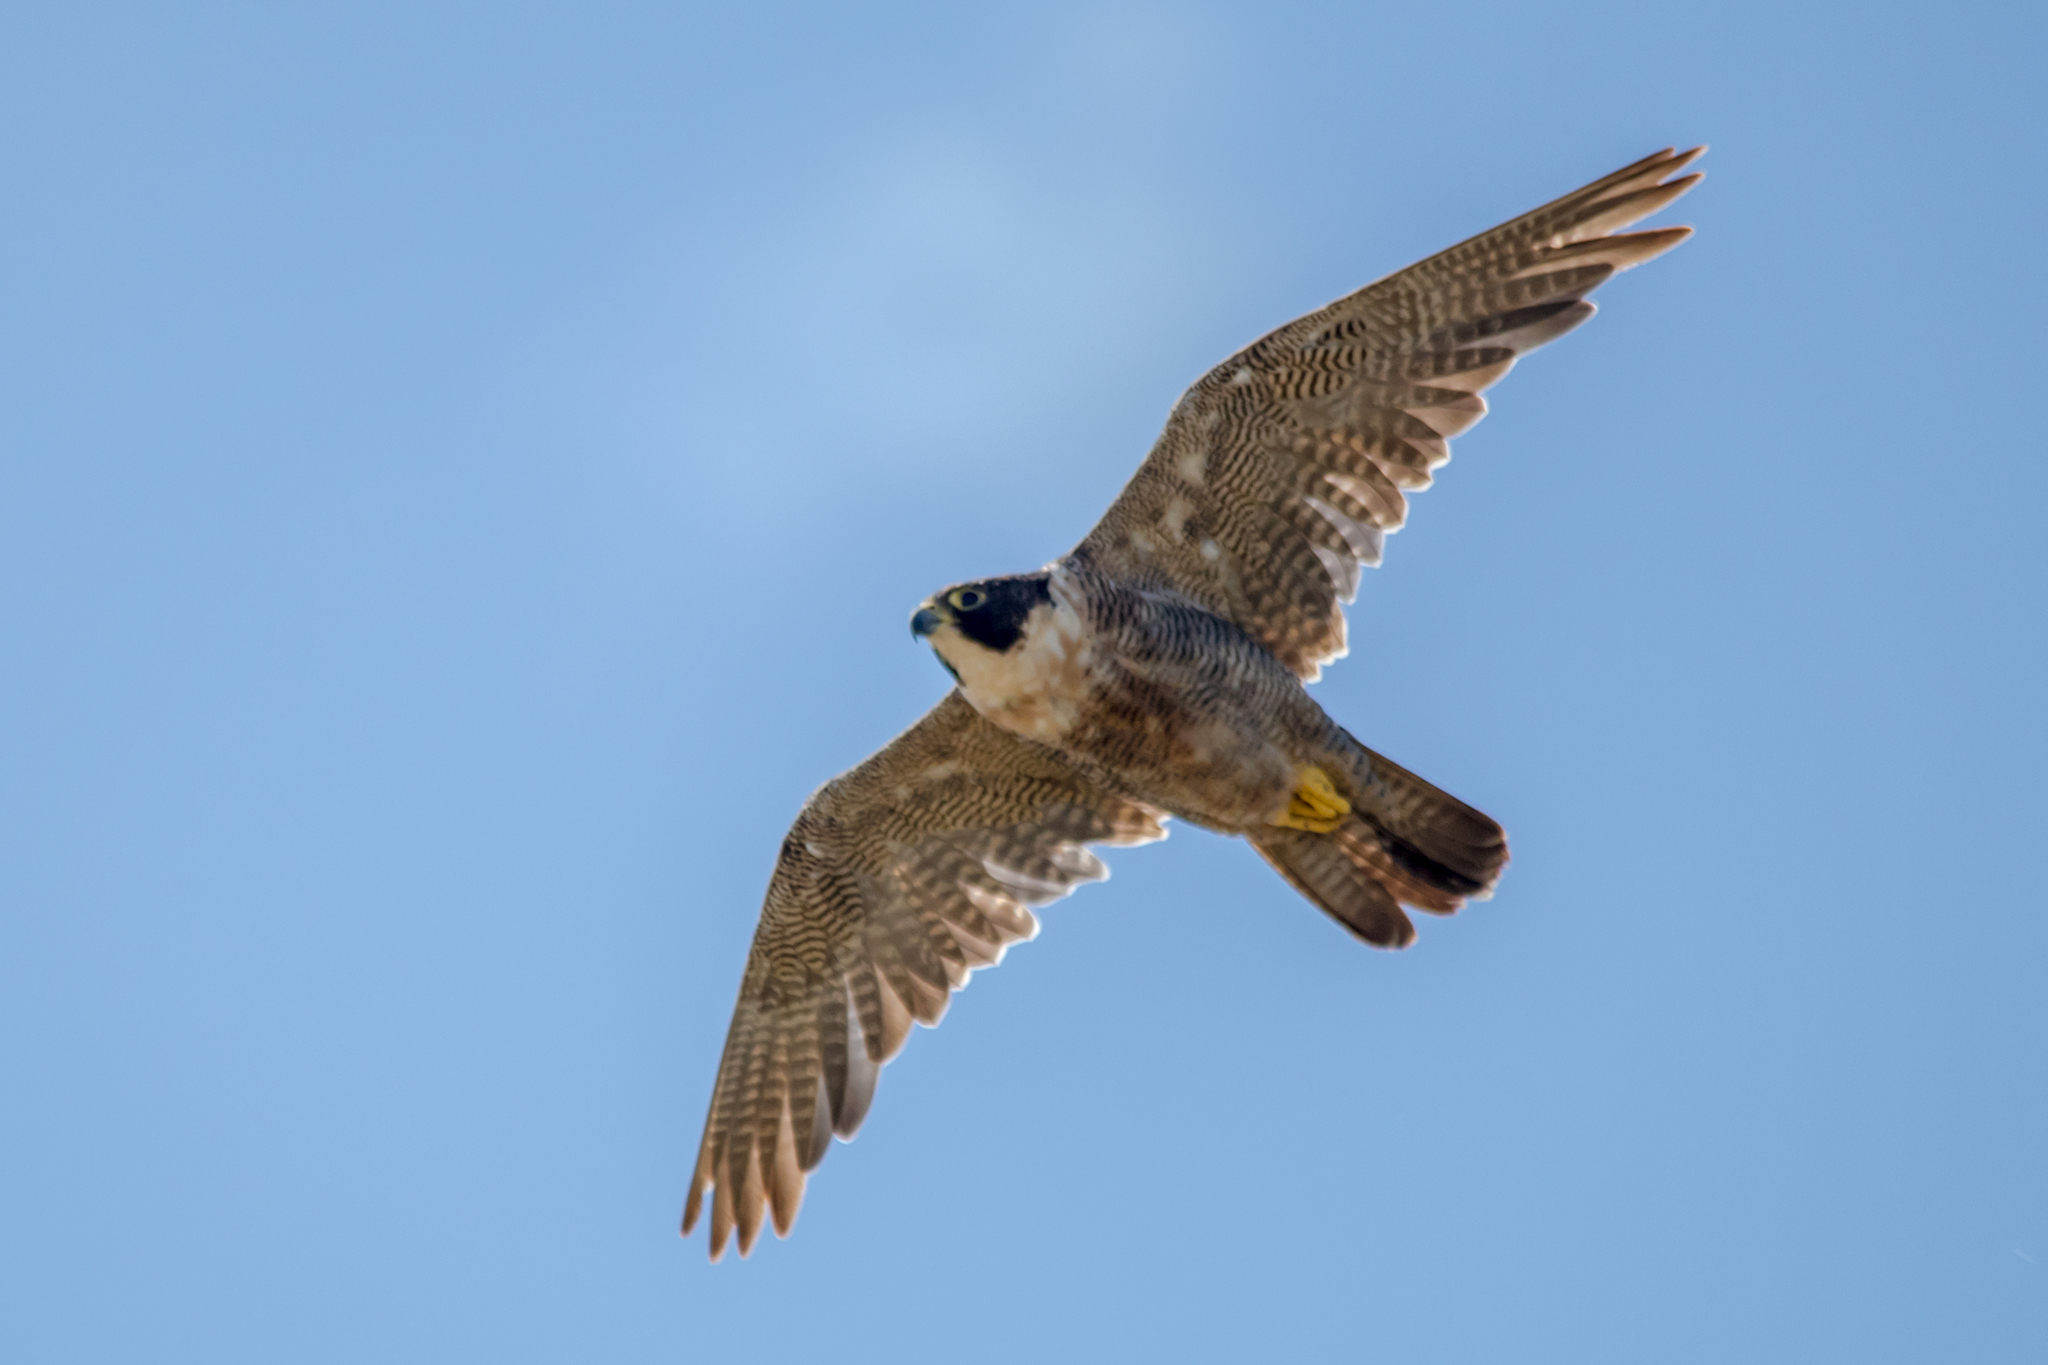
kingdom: Animalia
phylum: Chordata
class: Aves
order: Falconiformes
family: Falconidae
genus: Falco
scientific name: Falco peregrinus
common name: Peregrine falcon
